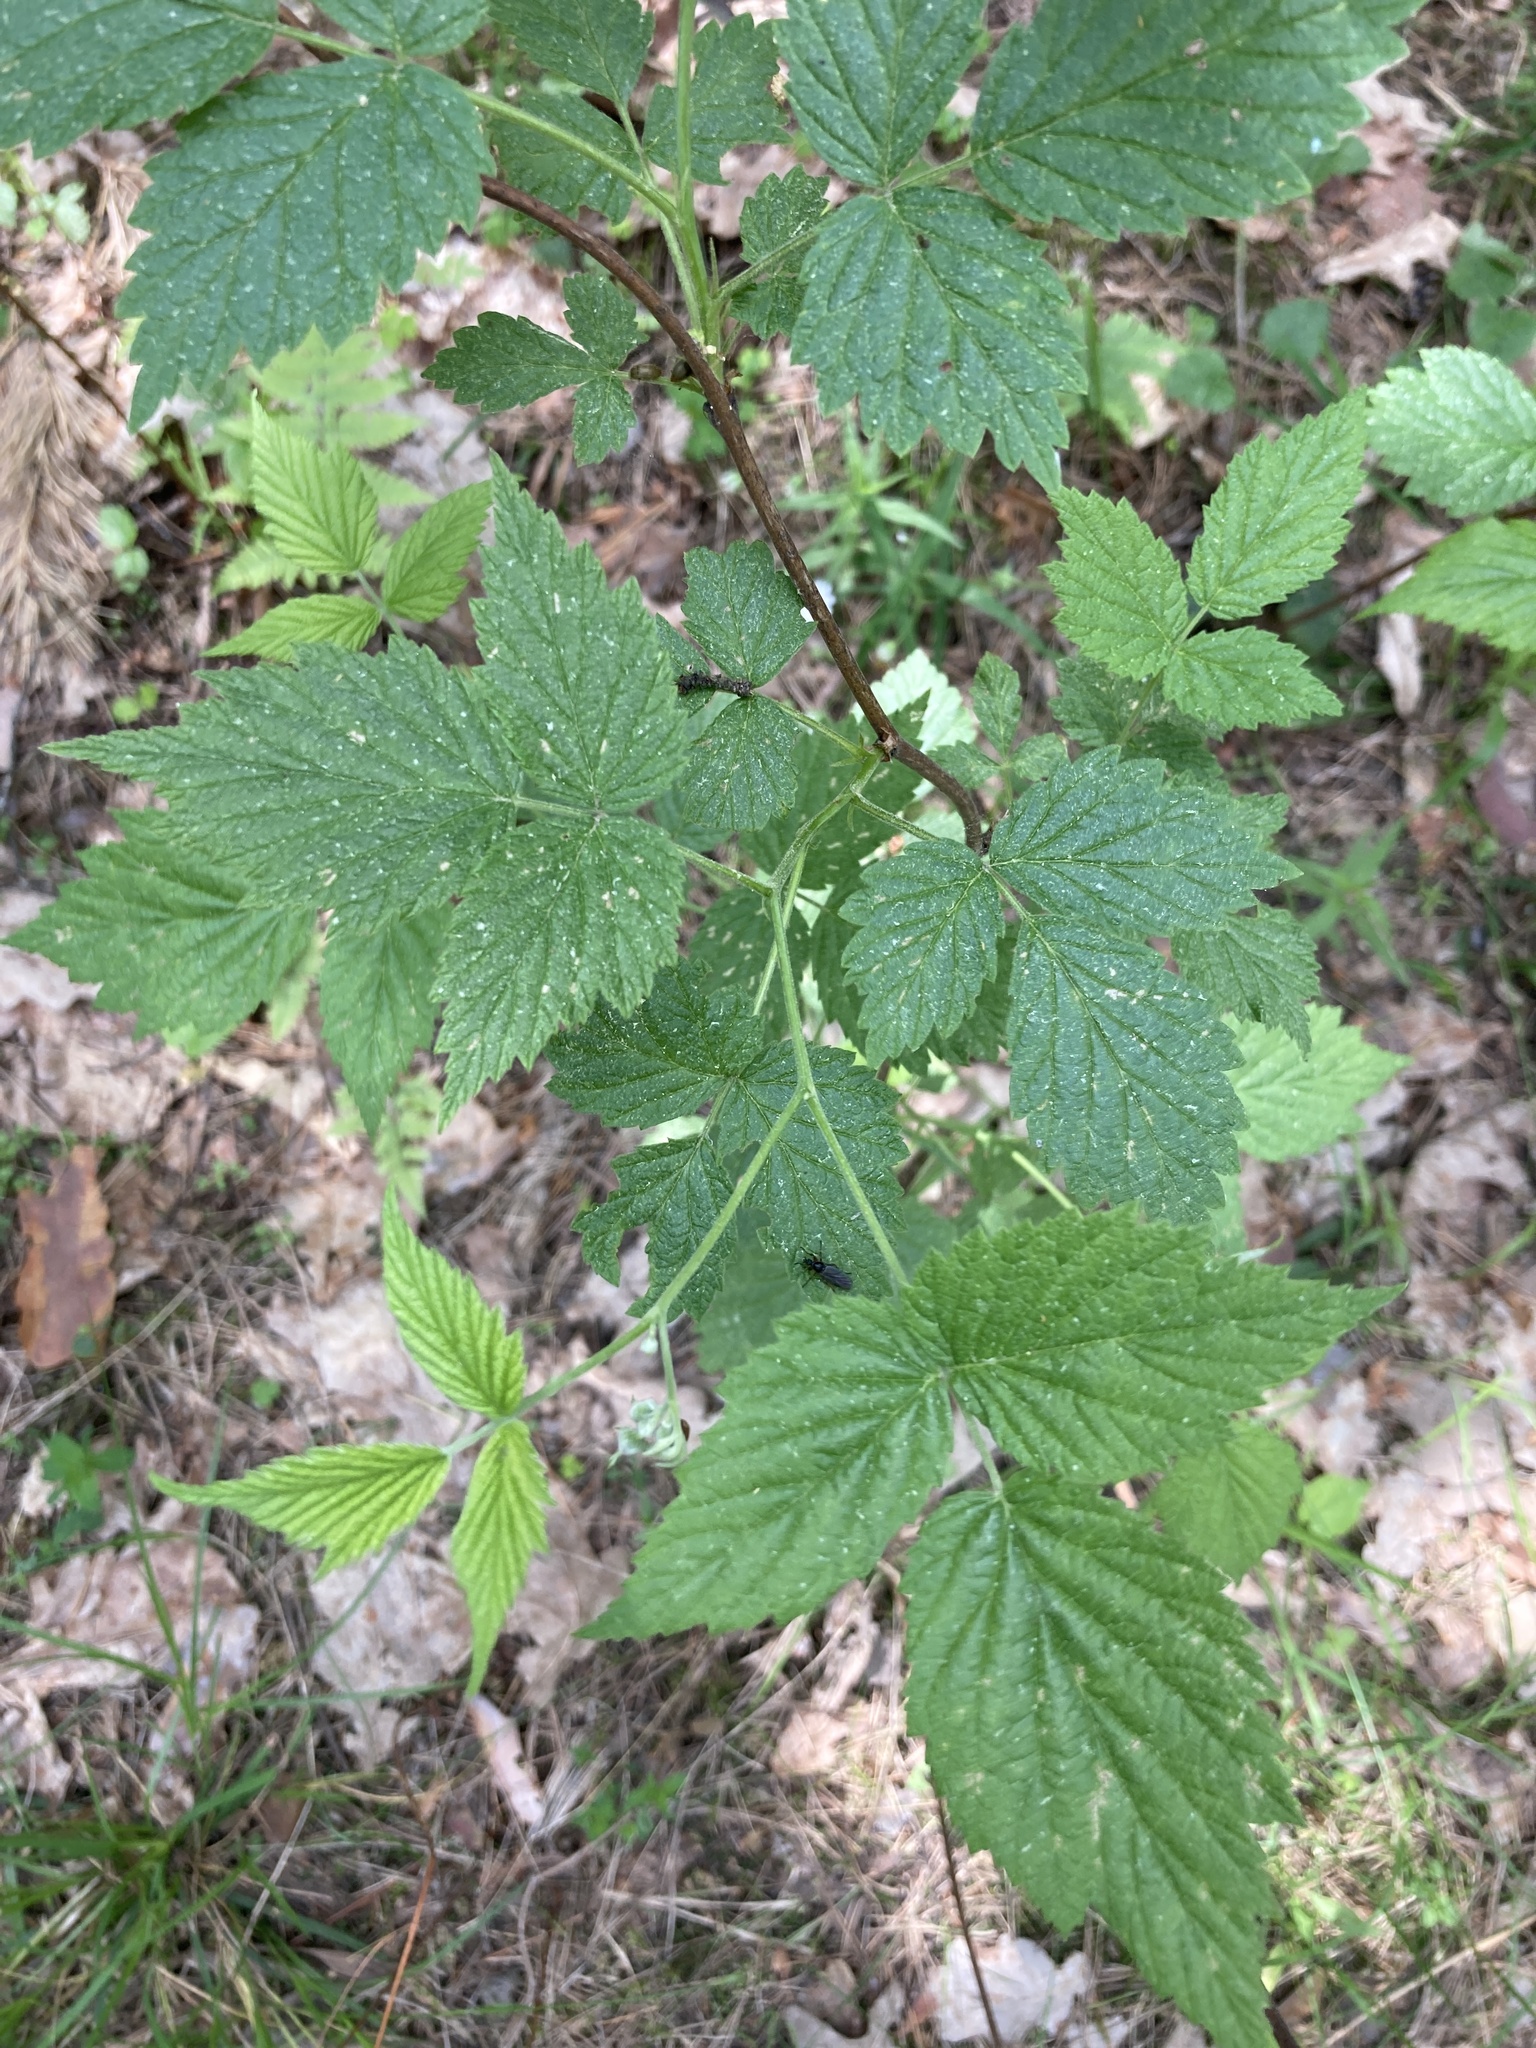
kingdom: Plantae
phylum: Tracheophyta
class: Magnoliopsida
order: Rosales
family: Rosaceae
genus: Rubus
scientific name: Rubus idaeus
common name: Raspberry
